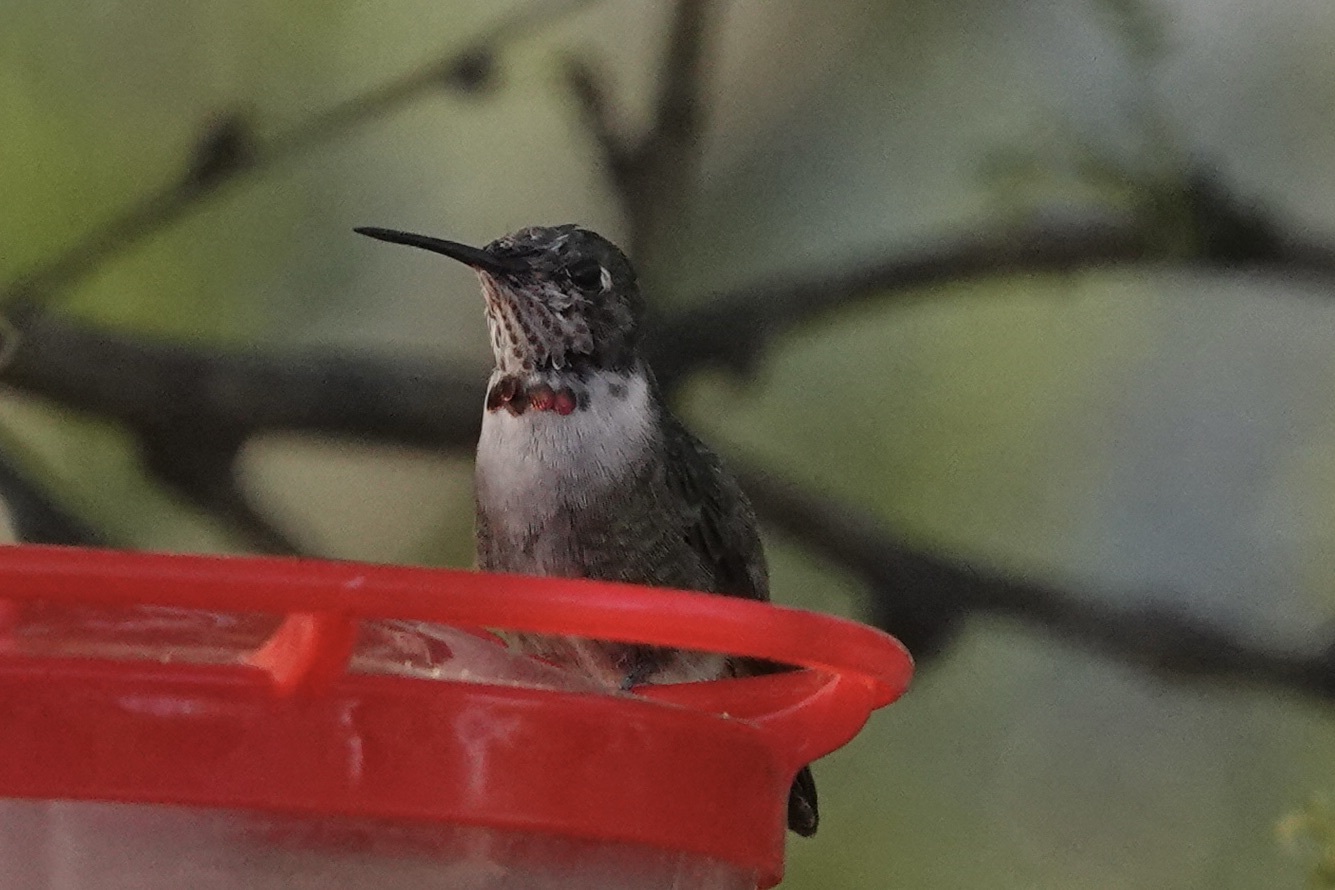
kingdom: Animalia
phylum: Chordata
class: Aves
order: Apodiformes
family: Trochilidae
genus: Selasphorus
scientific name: Selasphorus platycercus
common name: Broad-tailed hummingbird
